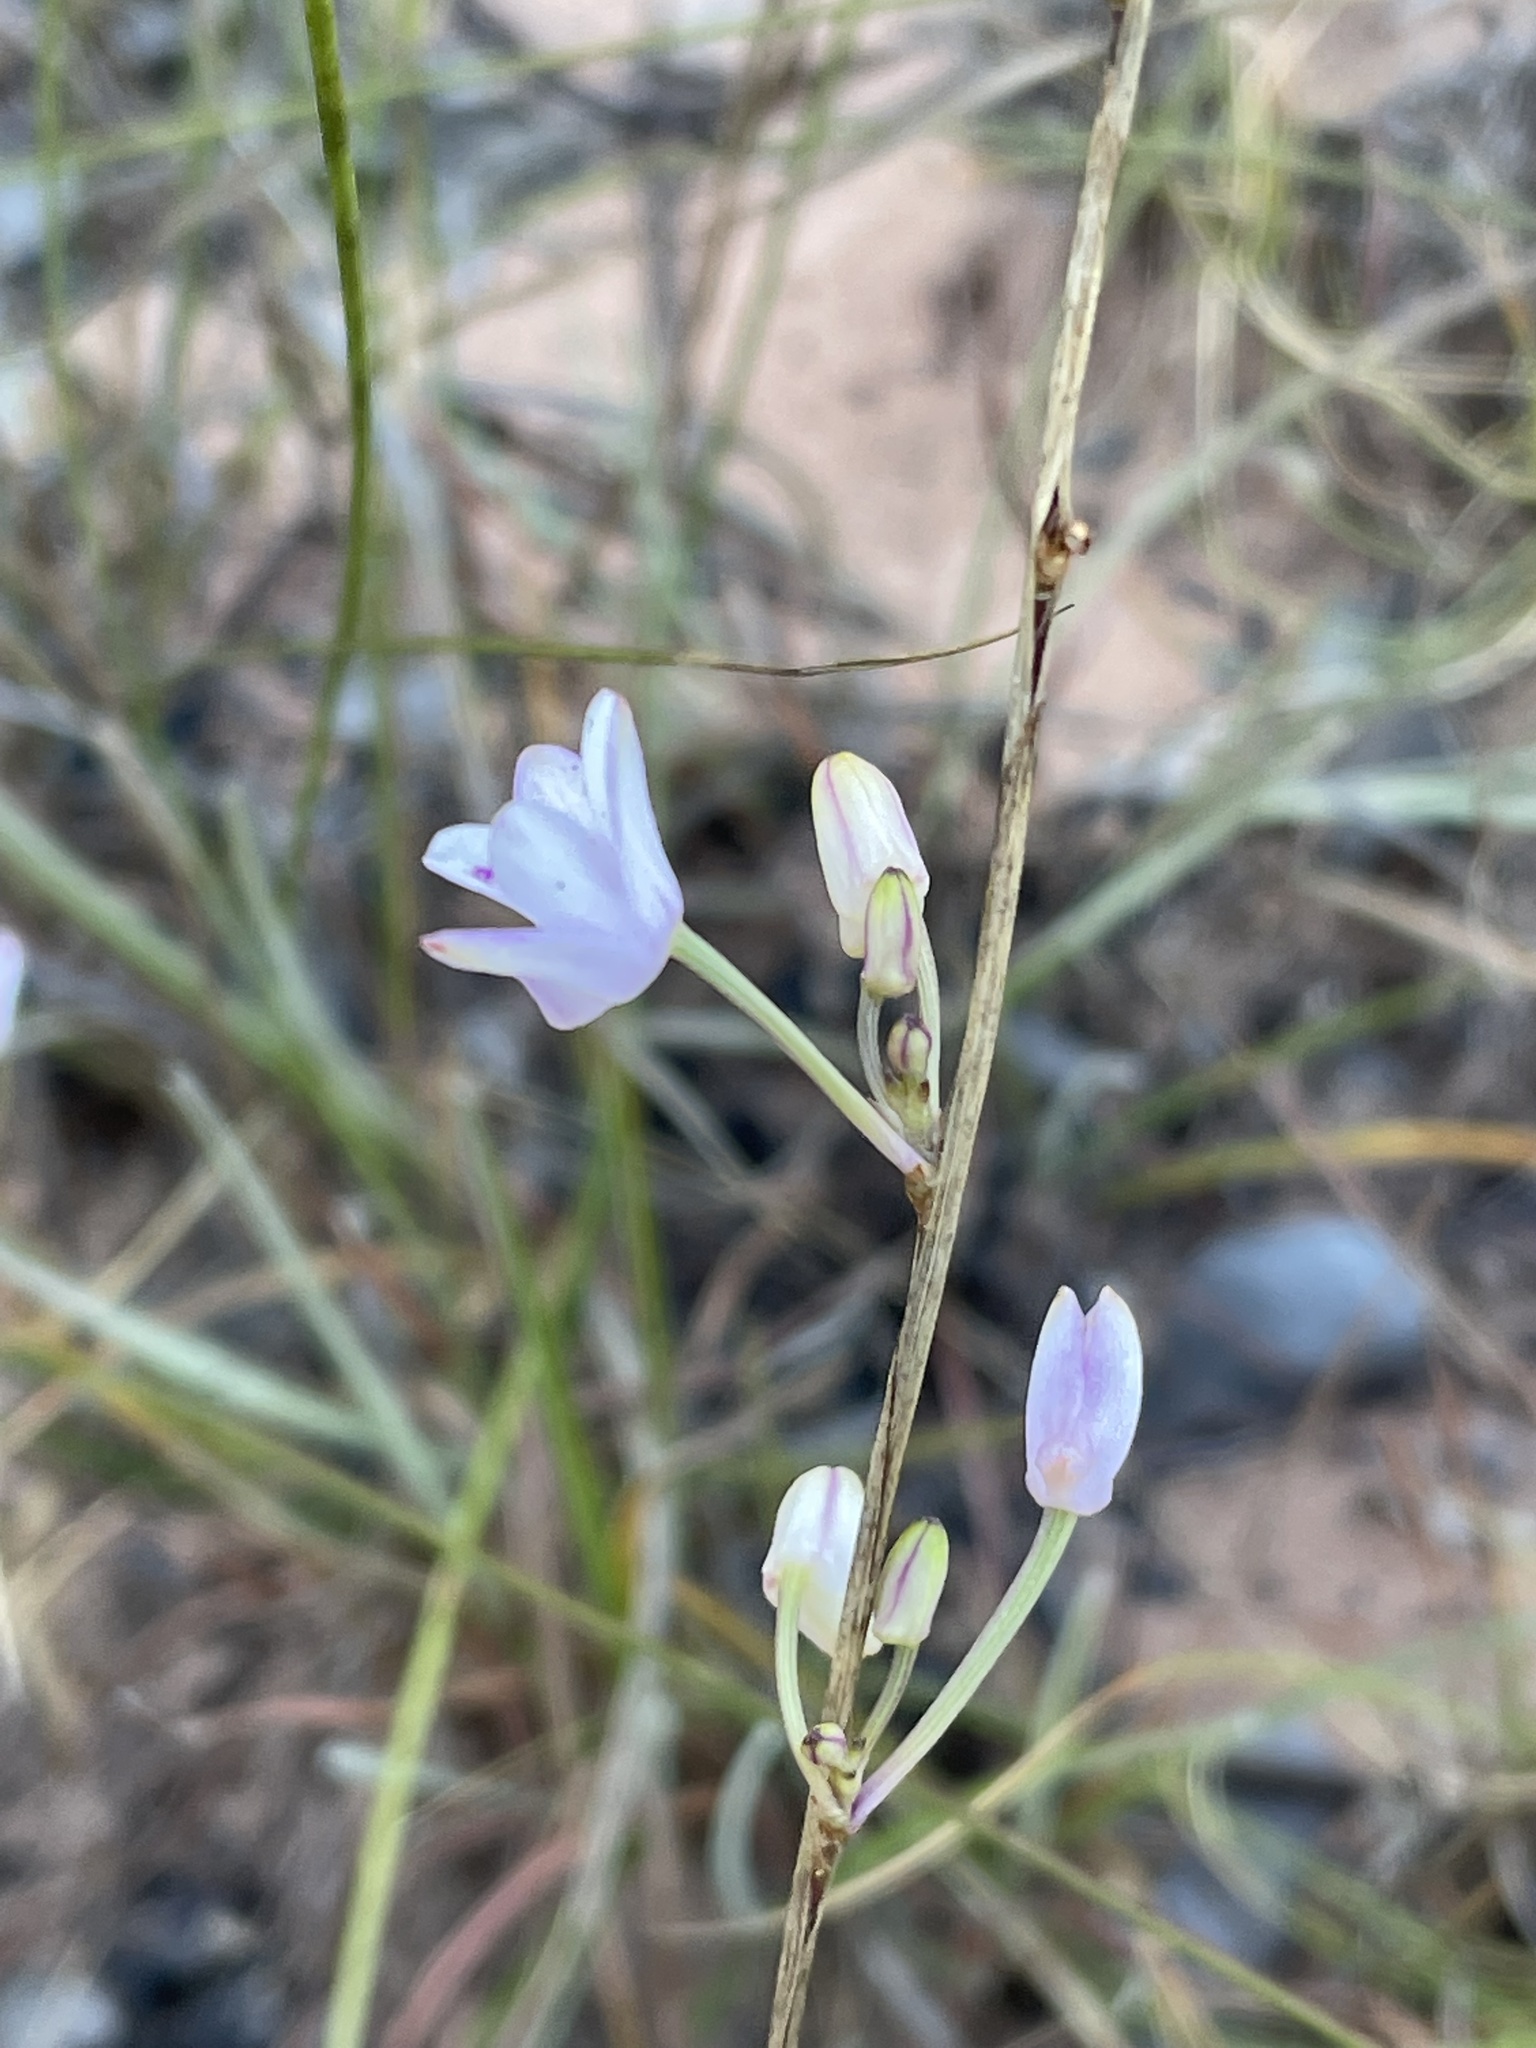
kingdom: Plantae
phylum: Tracheophyta
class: Liliopsida
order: Asparagales
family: Orchidaceae
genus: Polystachya
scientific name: Polystachya dendrobiiflora
